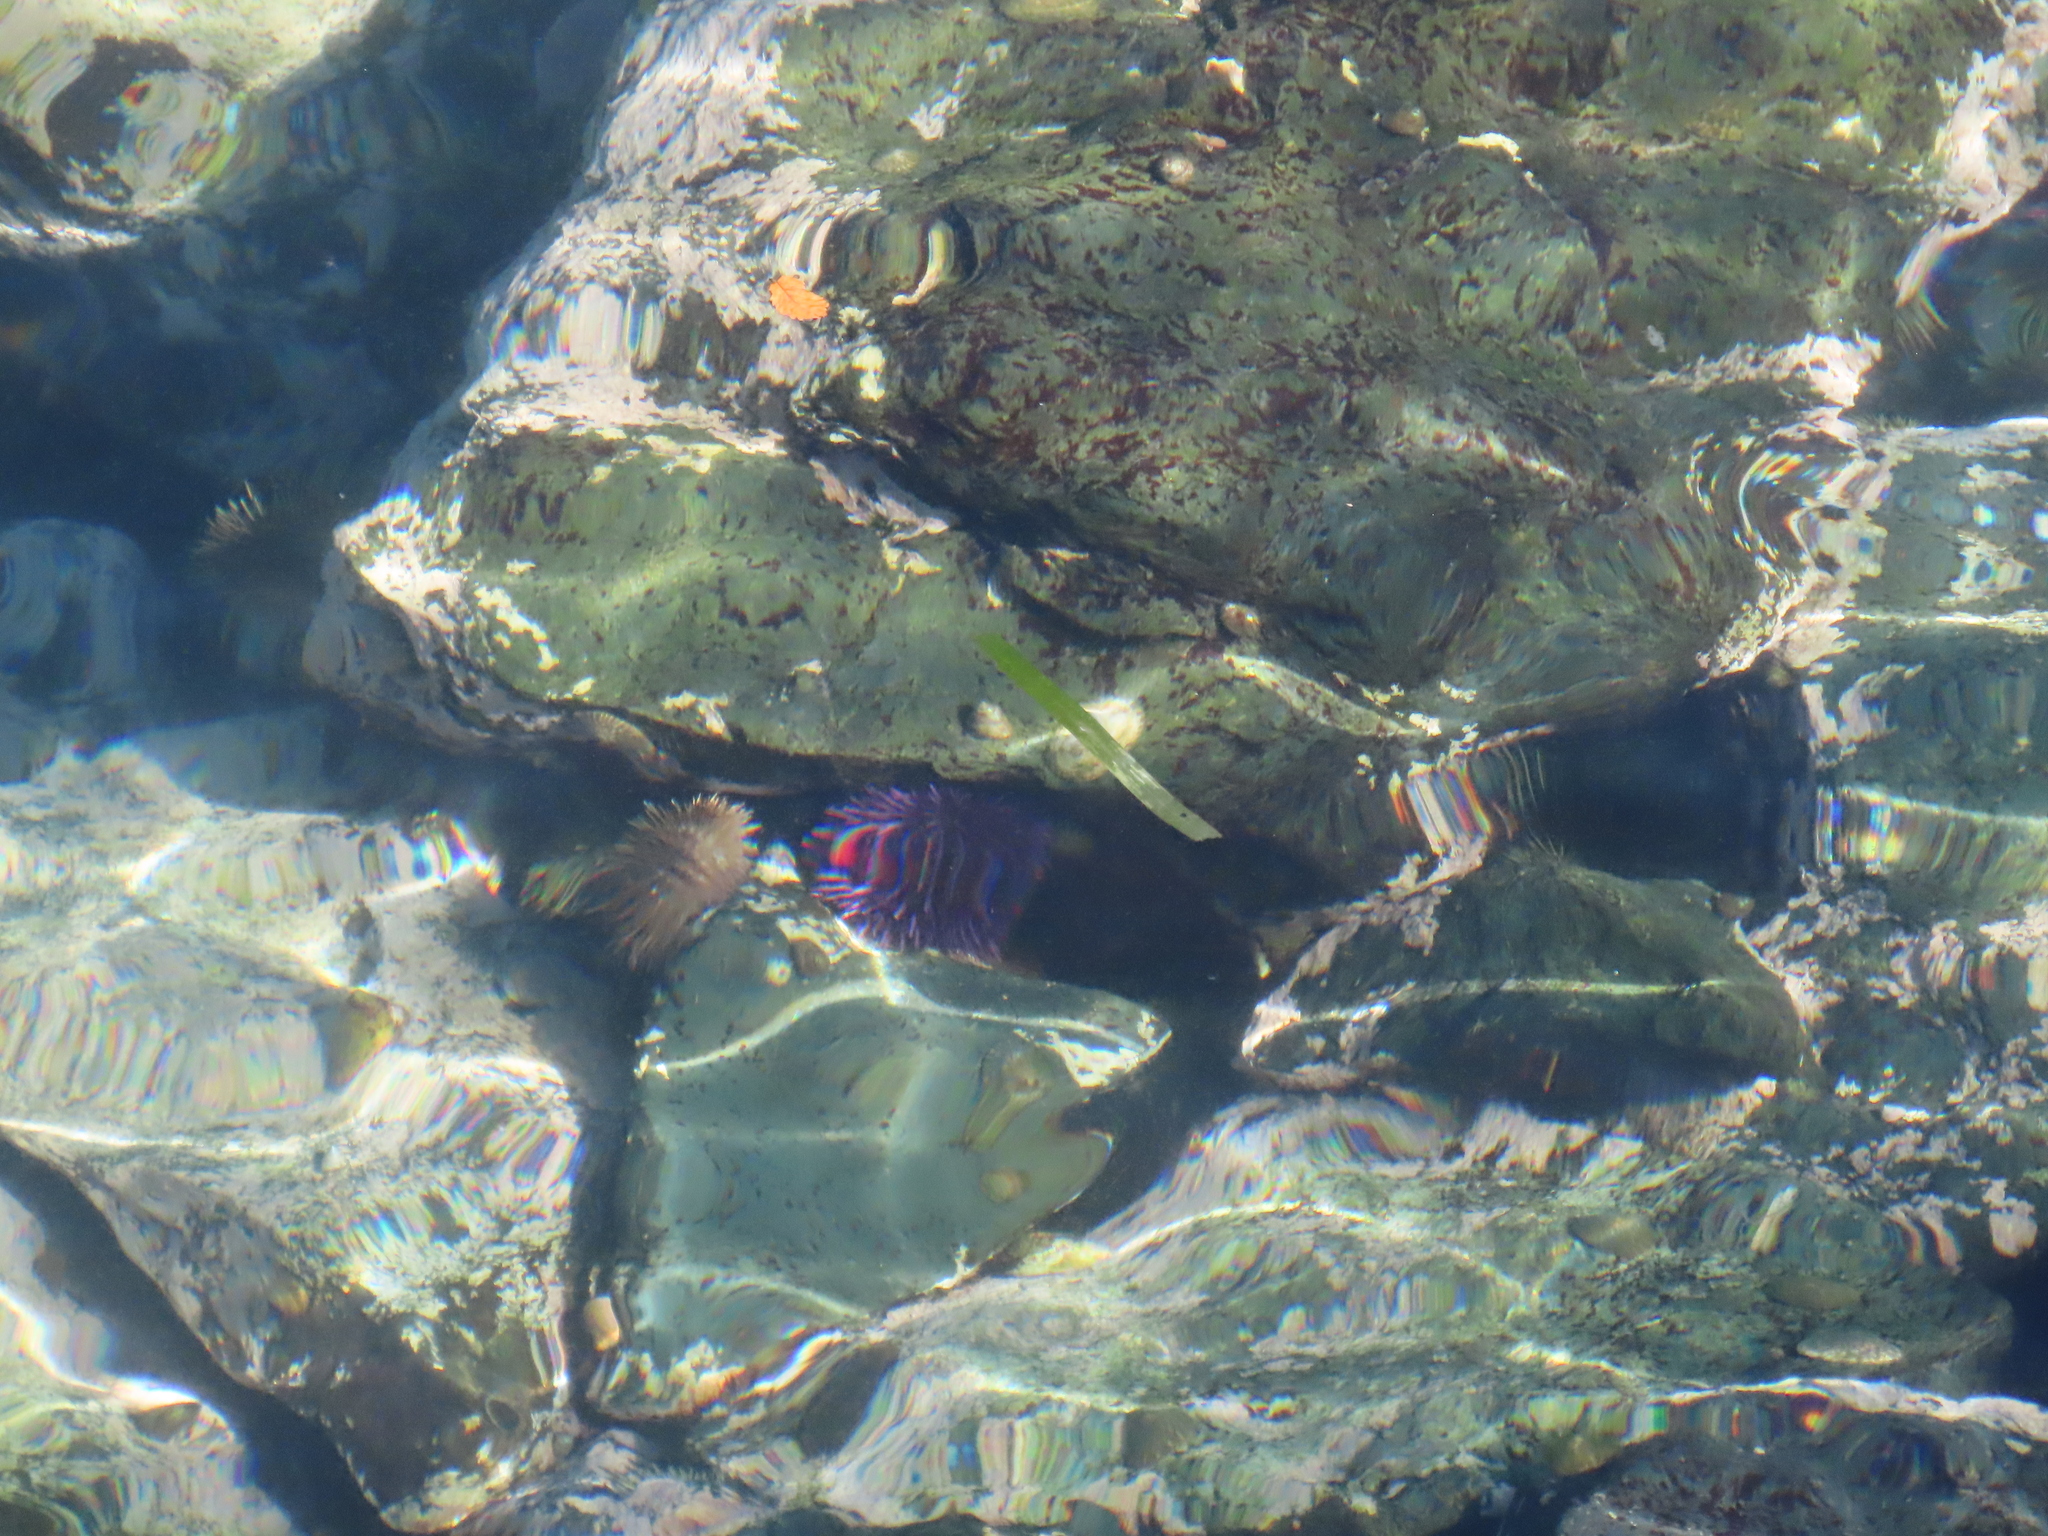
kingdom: Animalia
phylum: Echinodermata
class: Echinoidea
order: Camarodonta
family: Strongylocentrotidae
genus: Strongylocentrotus
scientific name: Strongylocentrotus purpuratus
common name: Purple sea urchin
